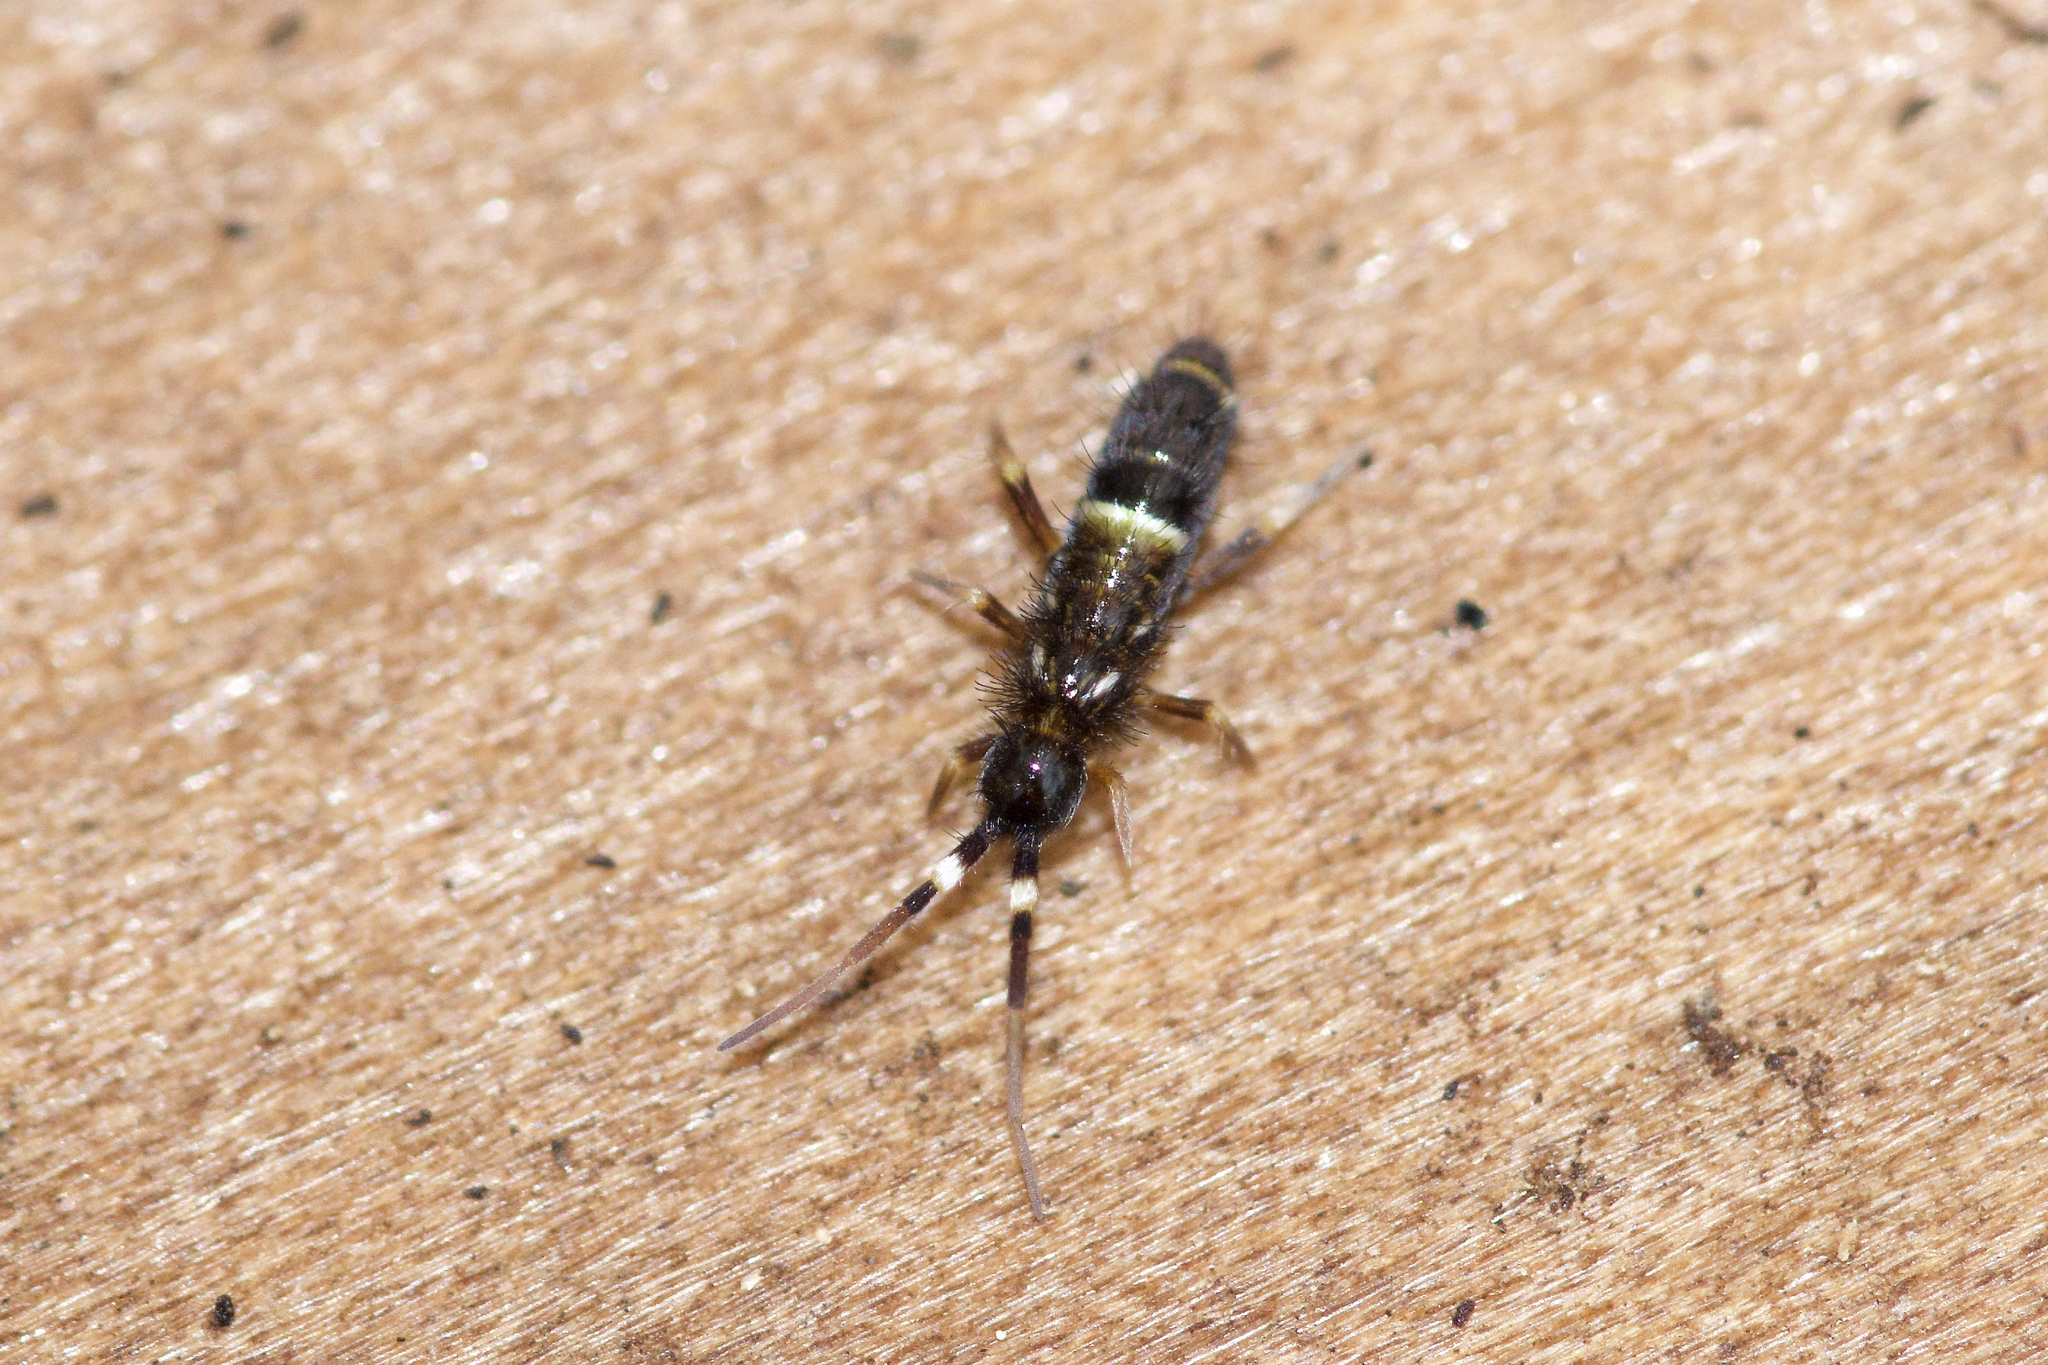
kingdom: Animalia
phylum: Arthropoda
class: Collembola
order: Entomobryomorpha
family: Orchesellidae
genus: Orchesella
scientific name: Orchesella cincta
